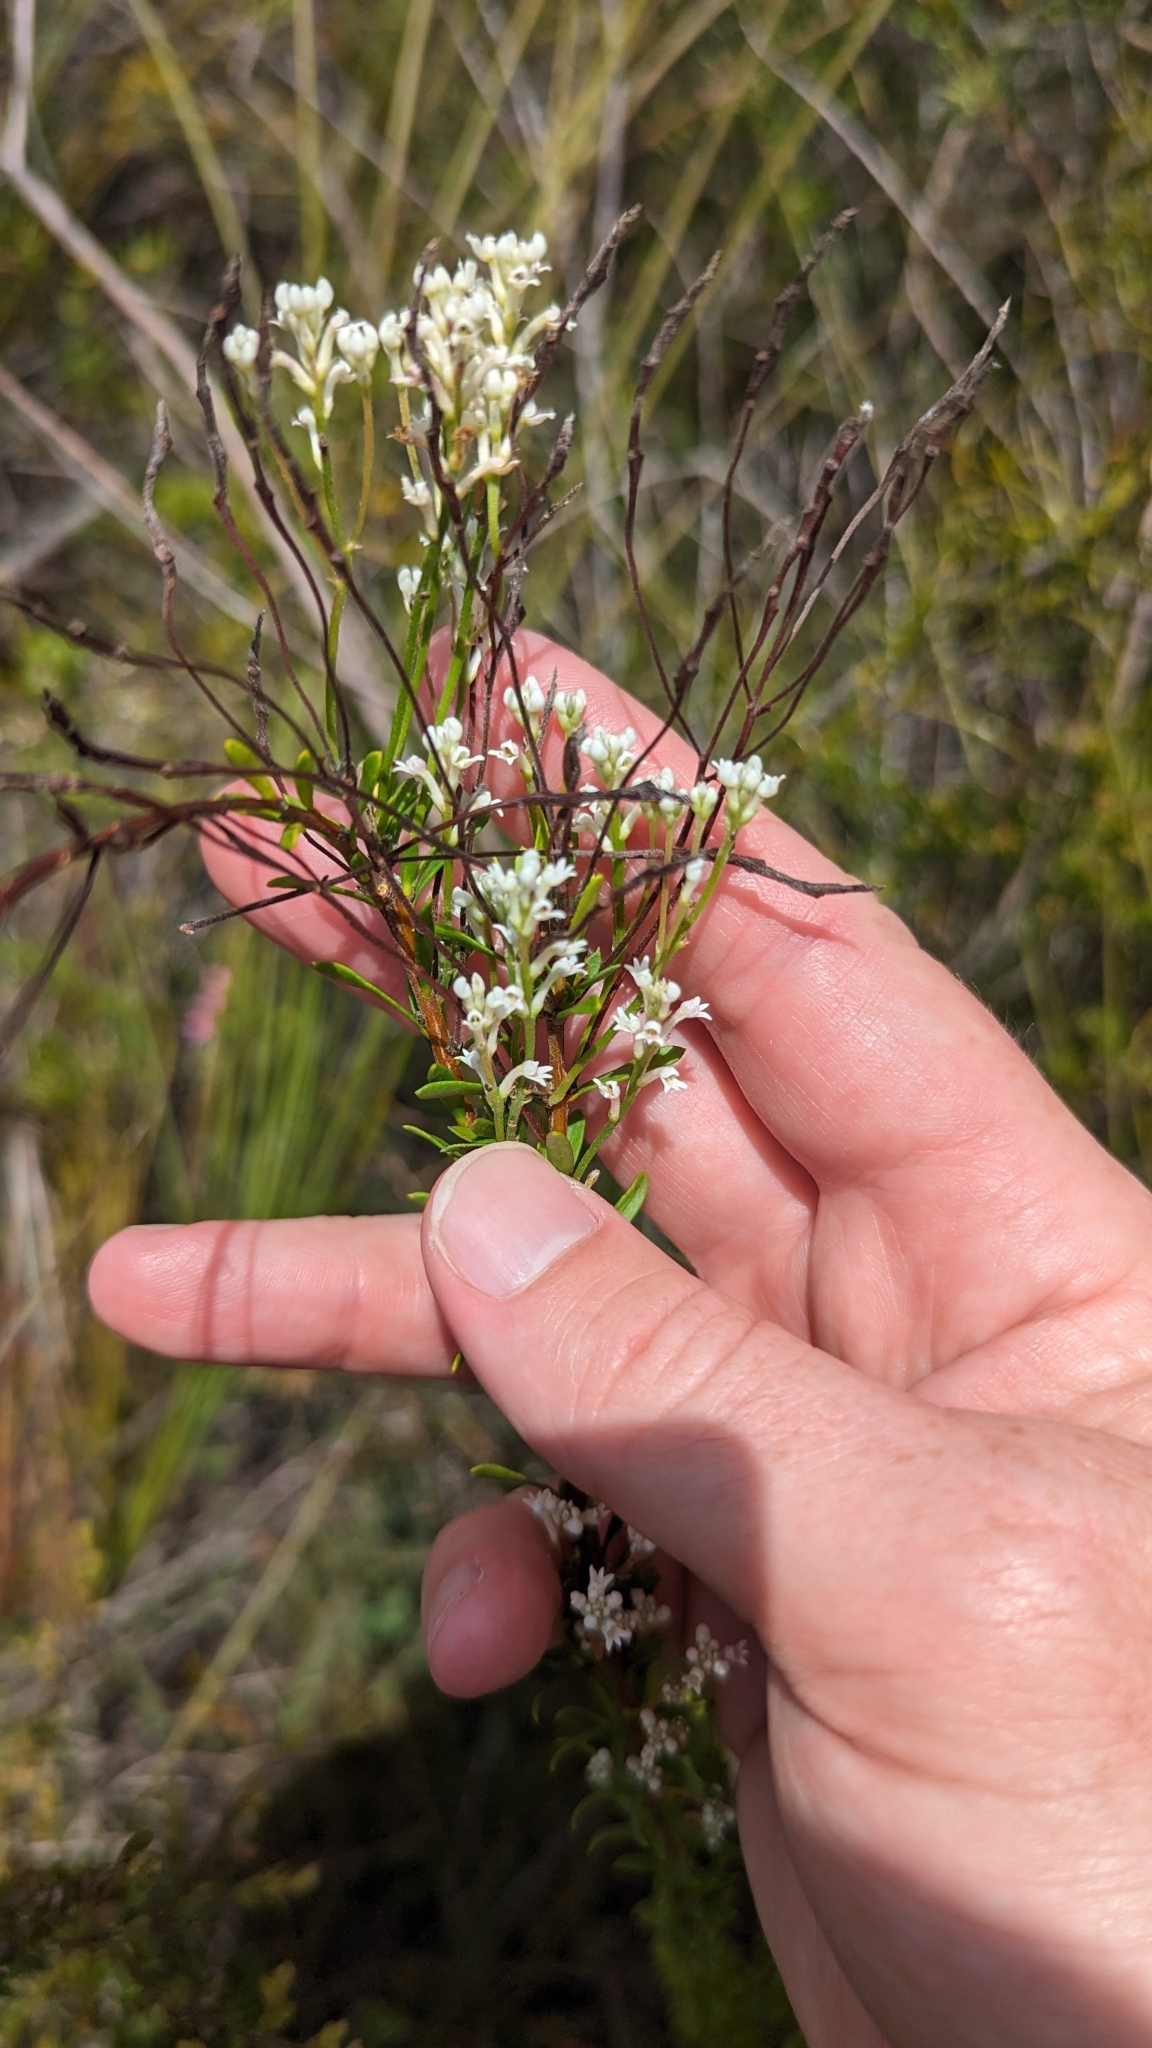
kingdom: Plantae
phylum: Tracheophyta
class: Magnoliopsida
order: Proteales
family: Proteaceae
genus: Conospermum
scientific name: Conospermum taxifolium
